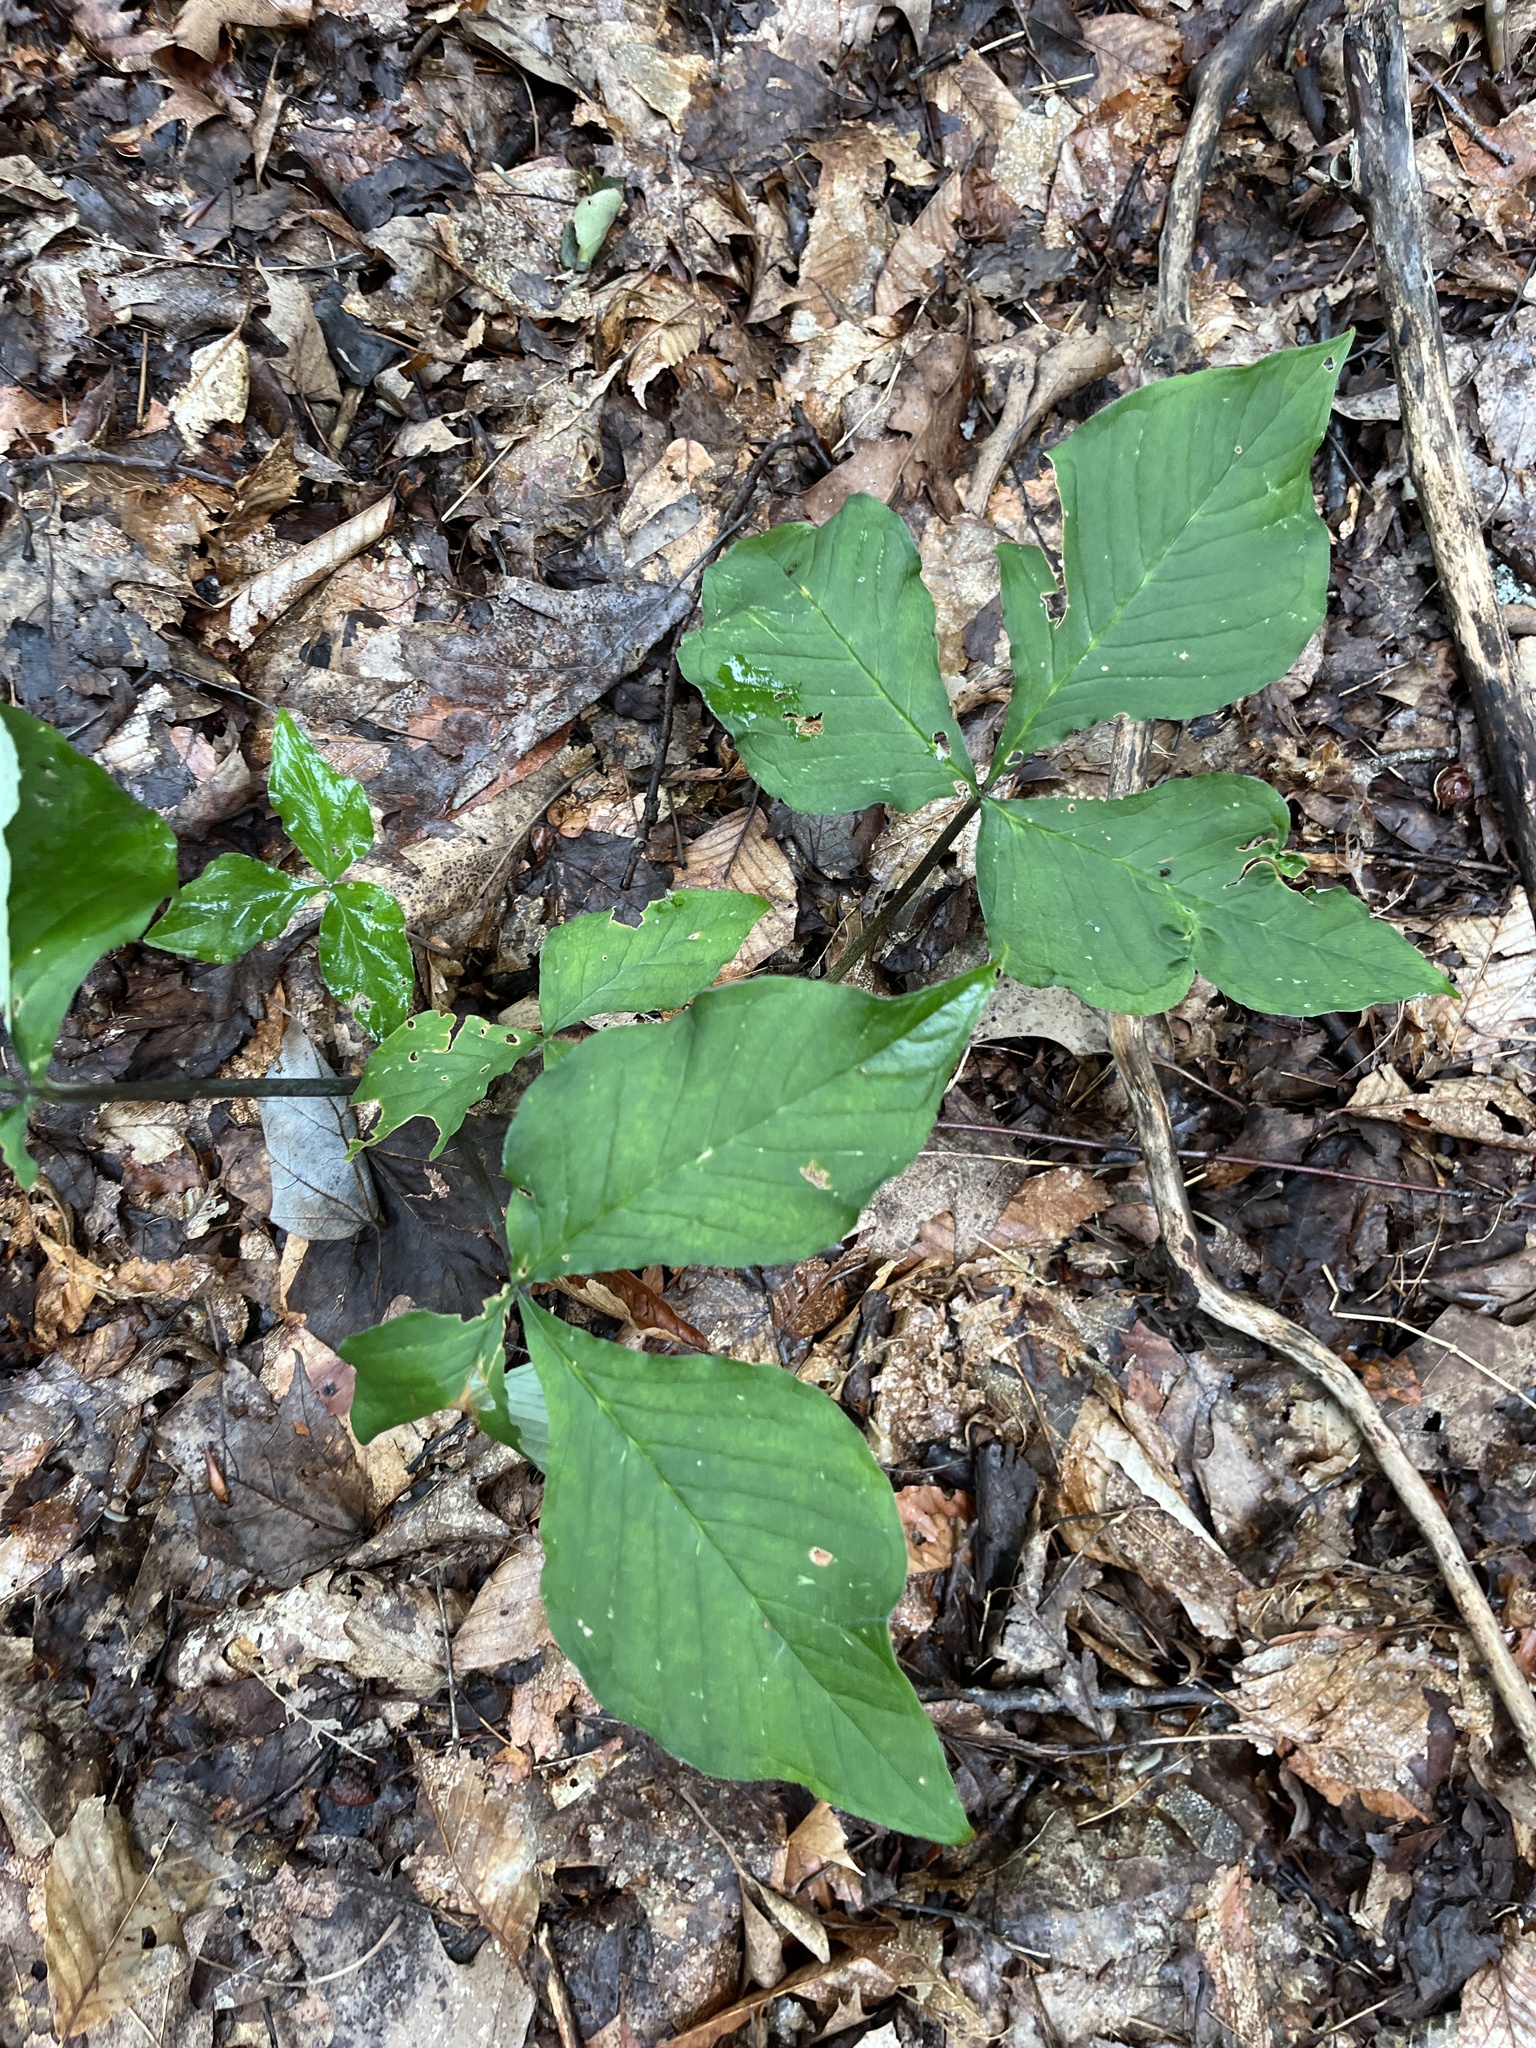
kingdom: Plantae
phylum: Tracheophyta
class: Liliopsida
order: Alismatales
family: Araceae
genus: Arisaema
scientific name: Arisaema triphyllum
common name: Jack-in-the-pulpit
